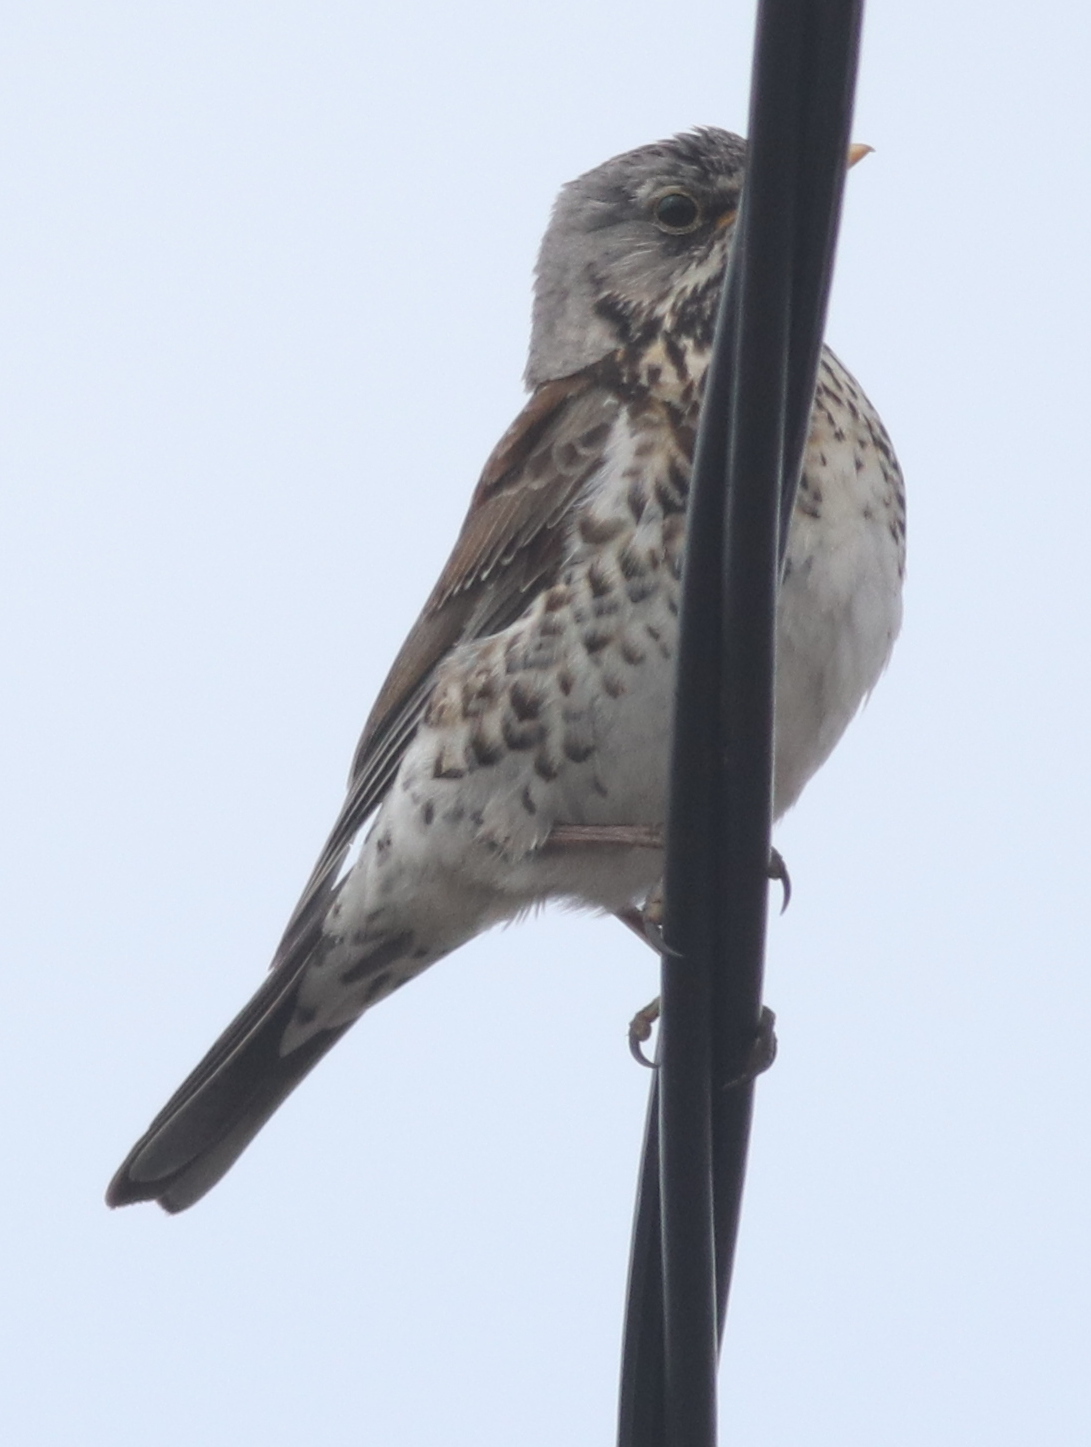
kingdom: Animalia
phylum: Chordata
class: Aves
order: Passeriformes
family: Turdidae
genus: Turdus
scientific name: Turdus pilaris
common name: Fieldfare
